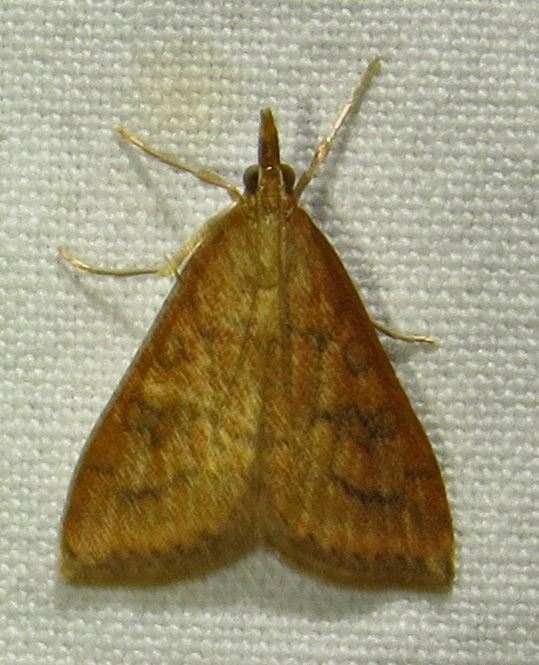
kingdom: Animalia
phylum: Arthropoda
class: Insecta
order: Lepidoptera
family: Crambidae
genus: Udea
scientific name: Udea rubigalis
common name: Celery leaftier moth
